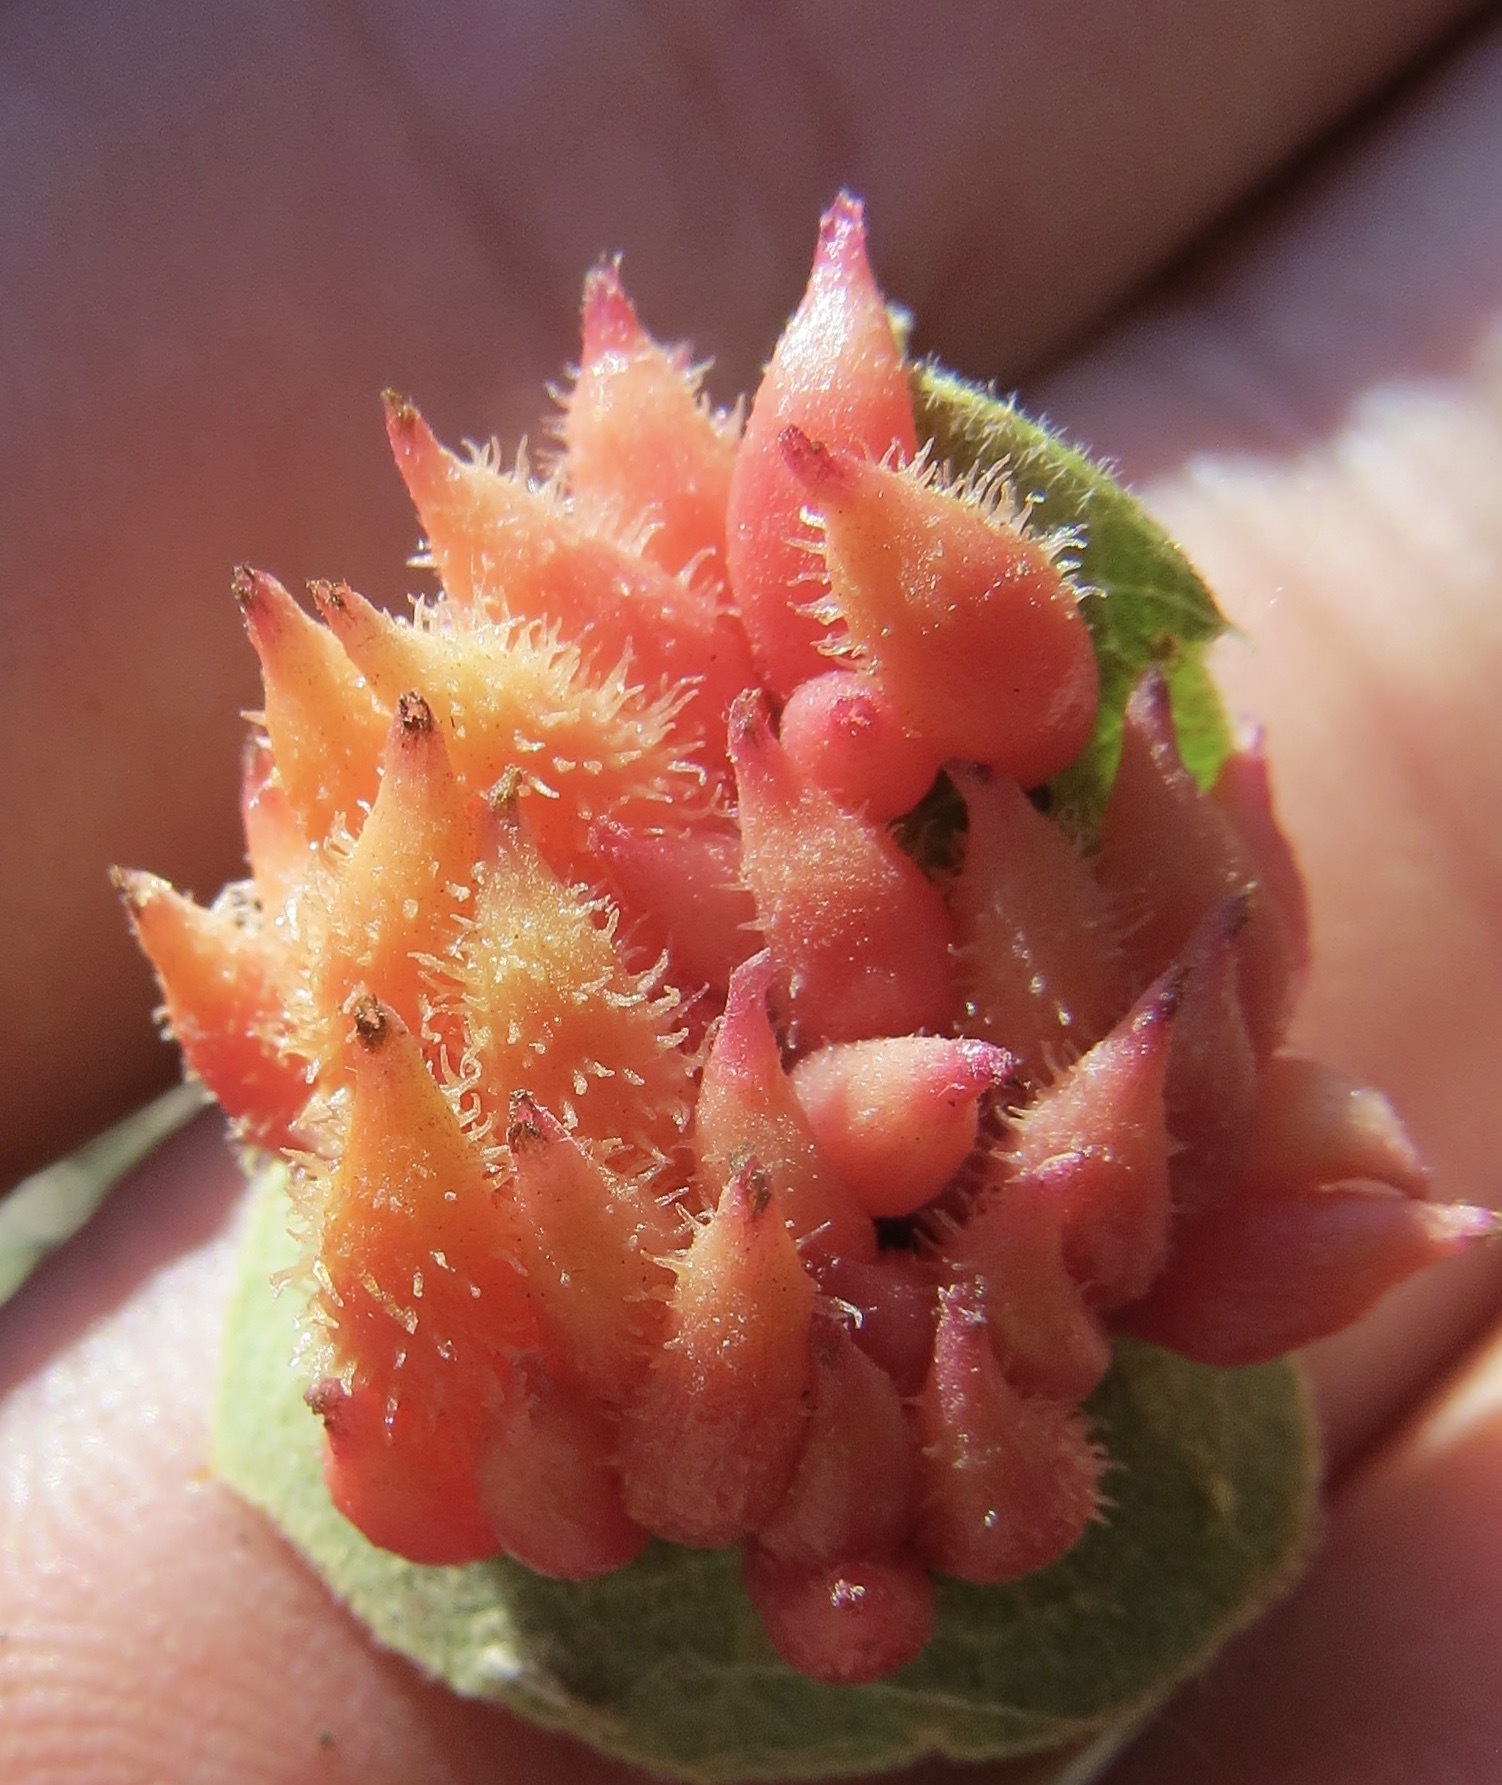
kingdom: Animalia
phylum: Arthropoda
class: Insecta
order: Hymenoptera
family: Cynipidae
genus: Andricus
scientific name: Andricus
